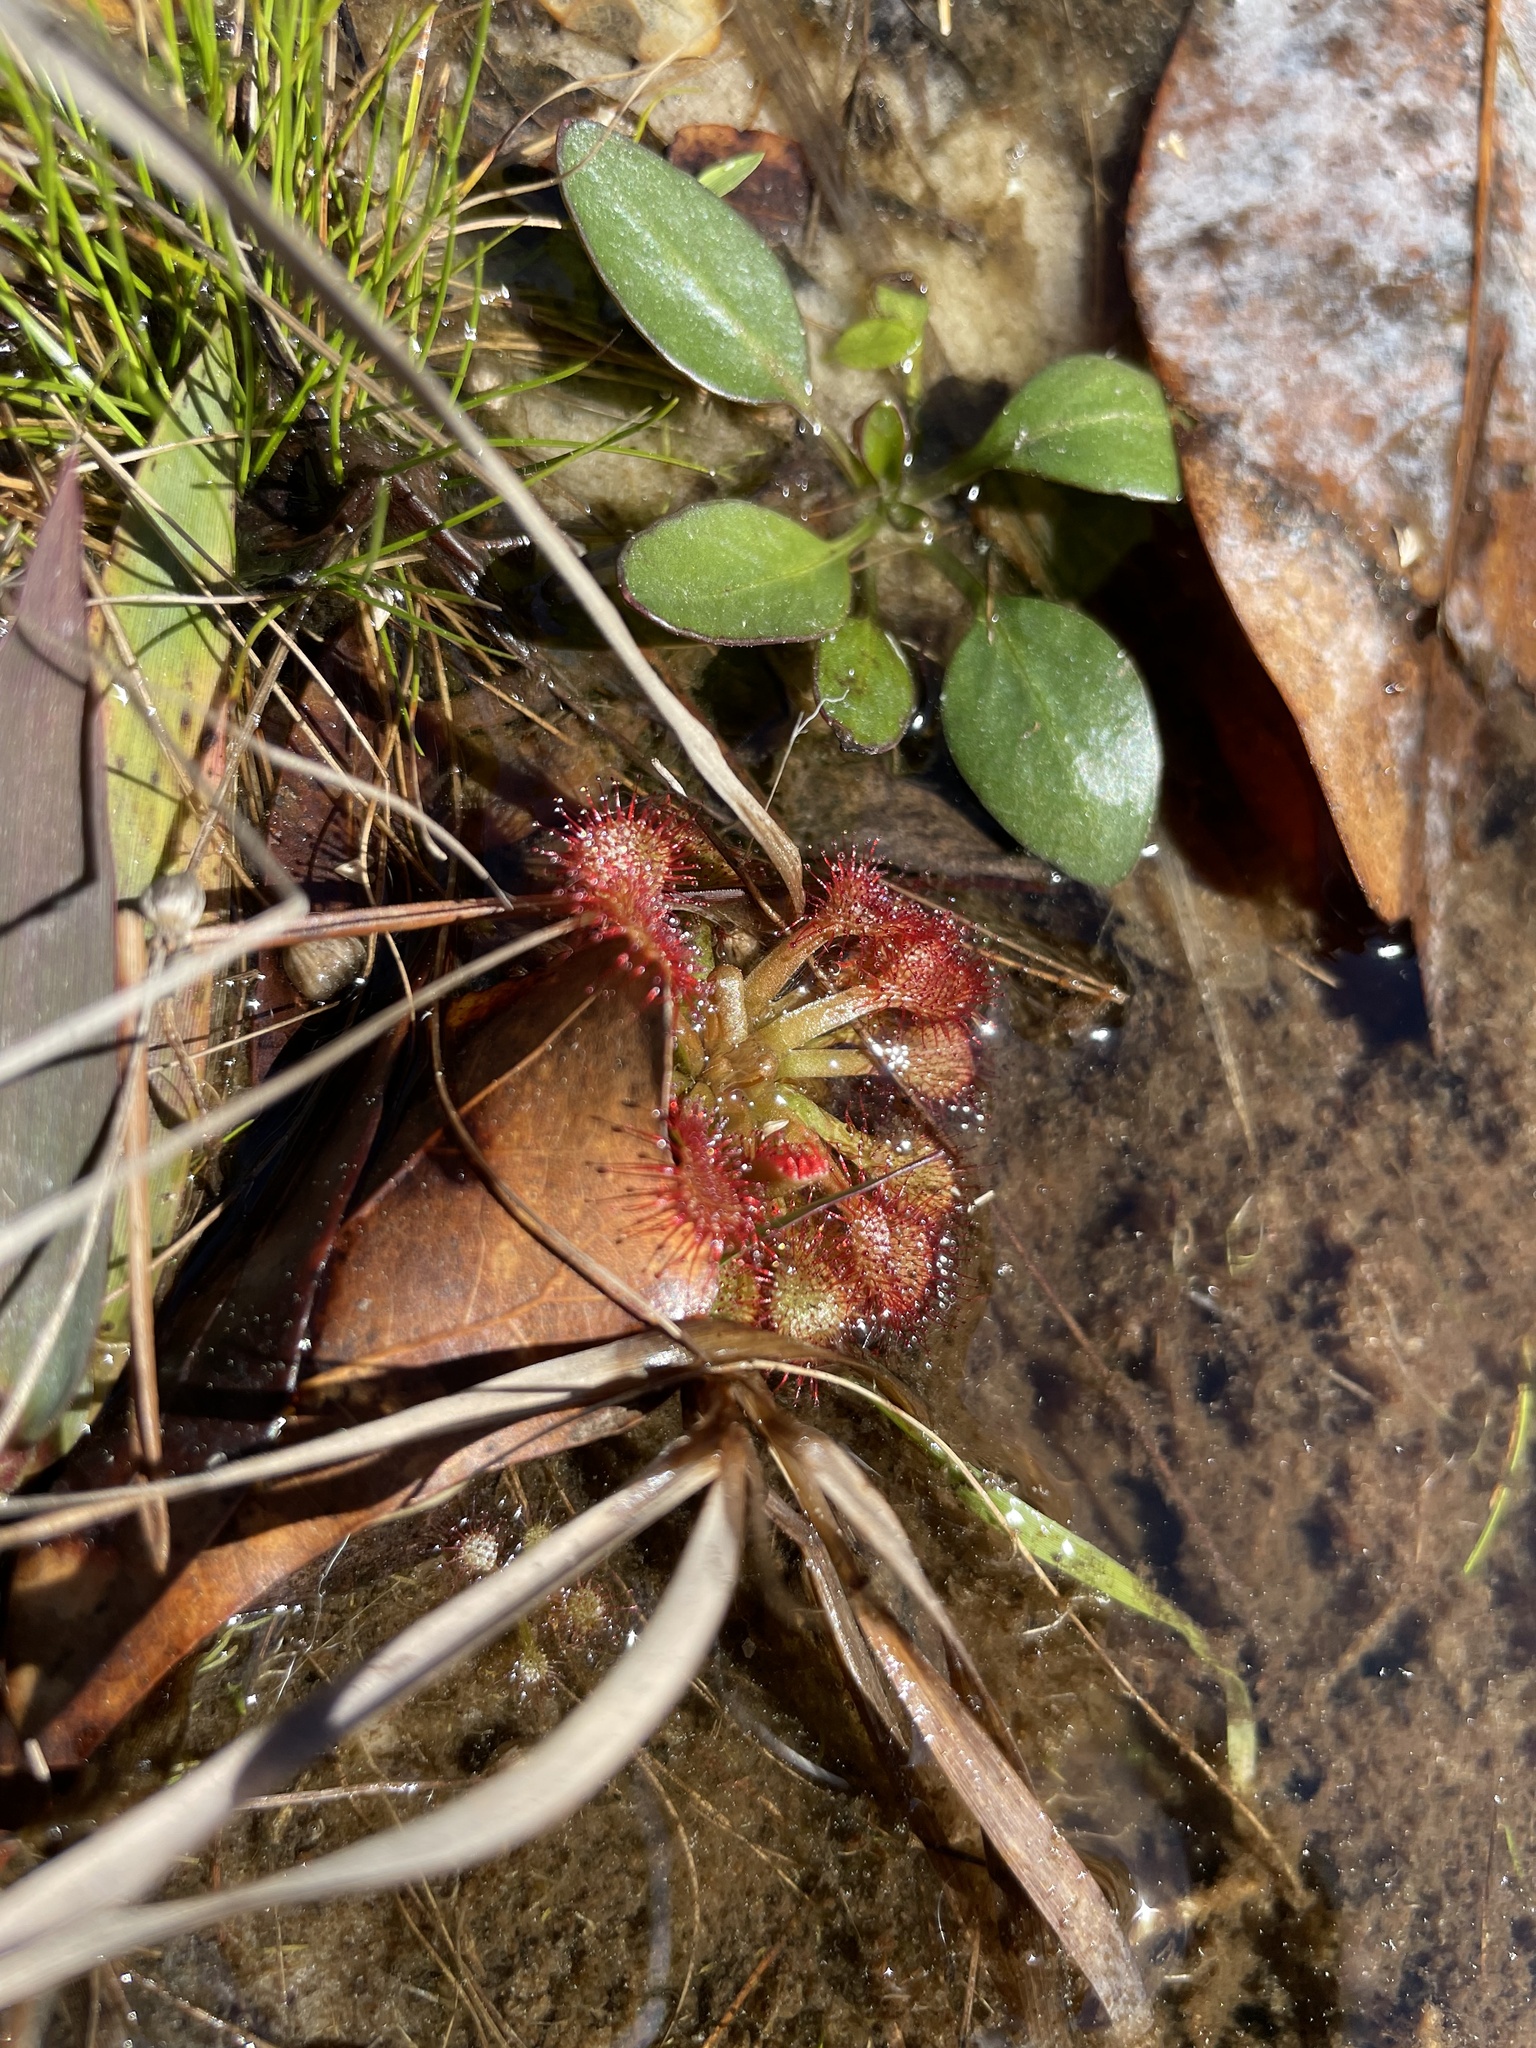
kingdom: Plantae
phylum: Tracheophyta
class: Magnoliopsida
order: Caryophyllales
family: Droseraceae
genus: Drosera
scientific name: Drosera capillaris
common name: Pink sundew
